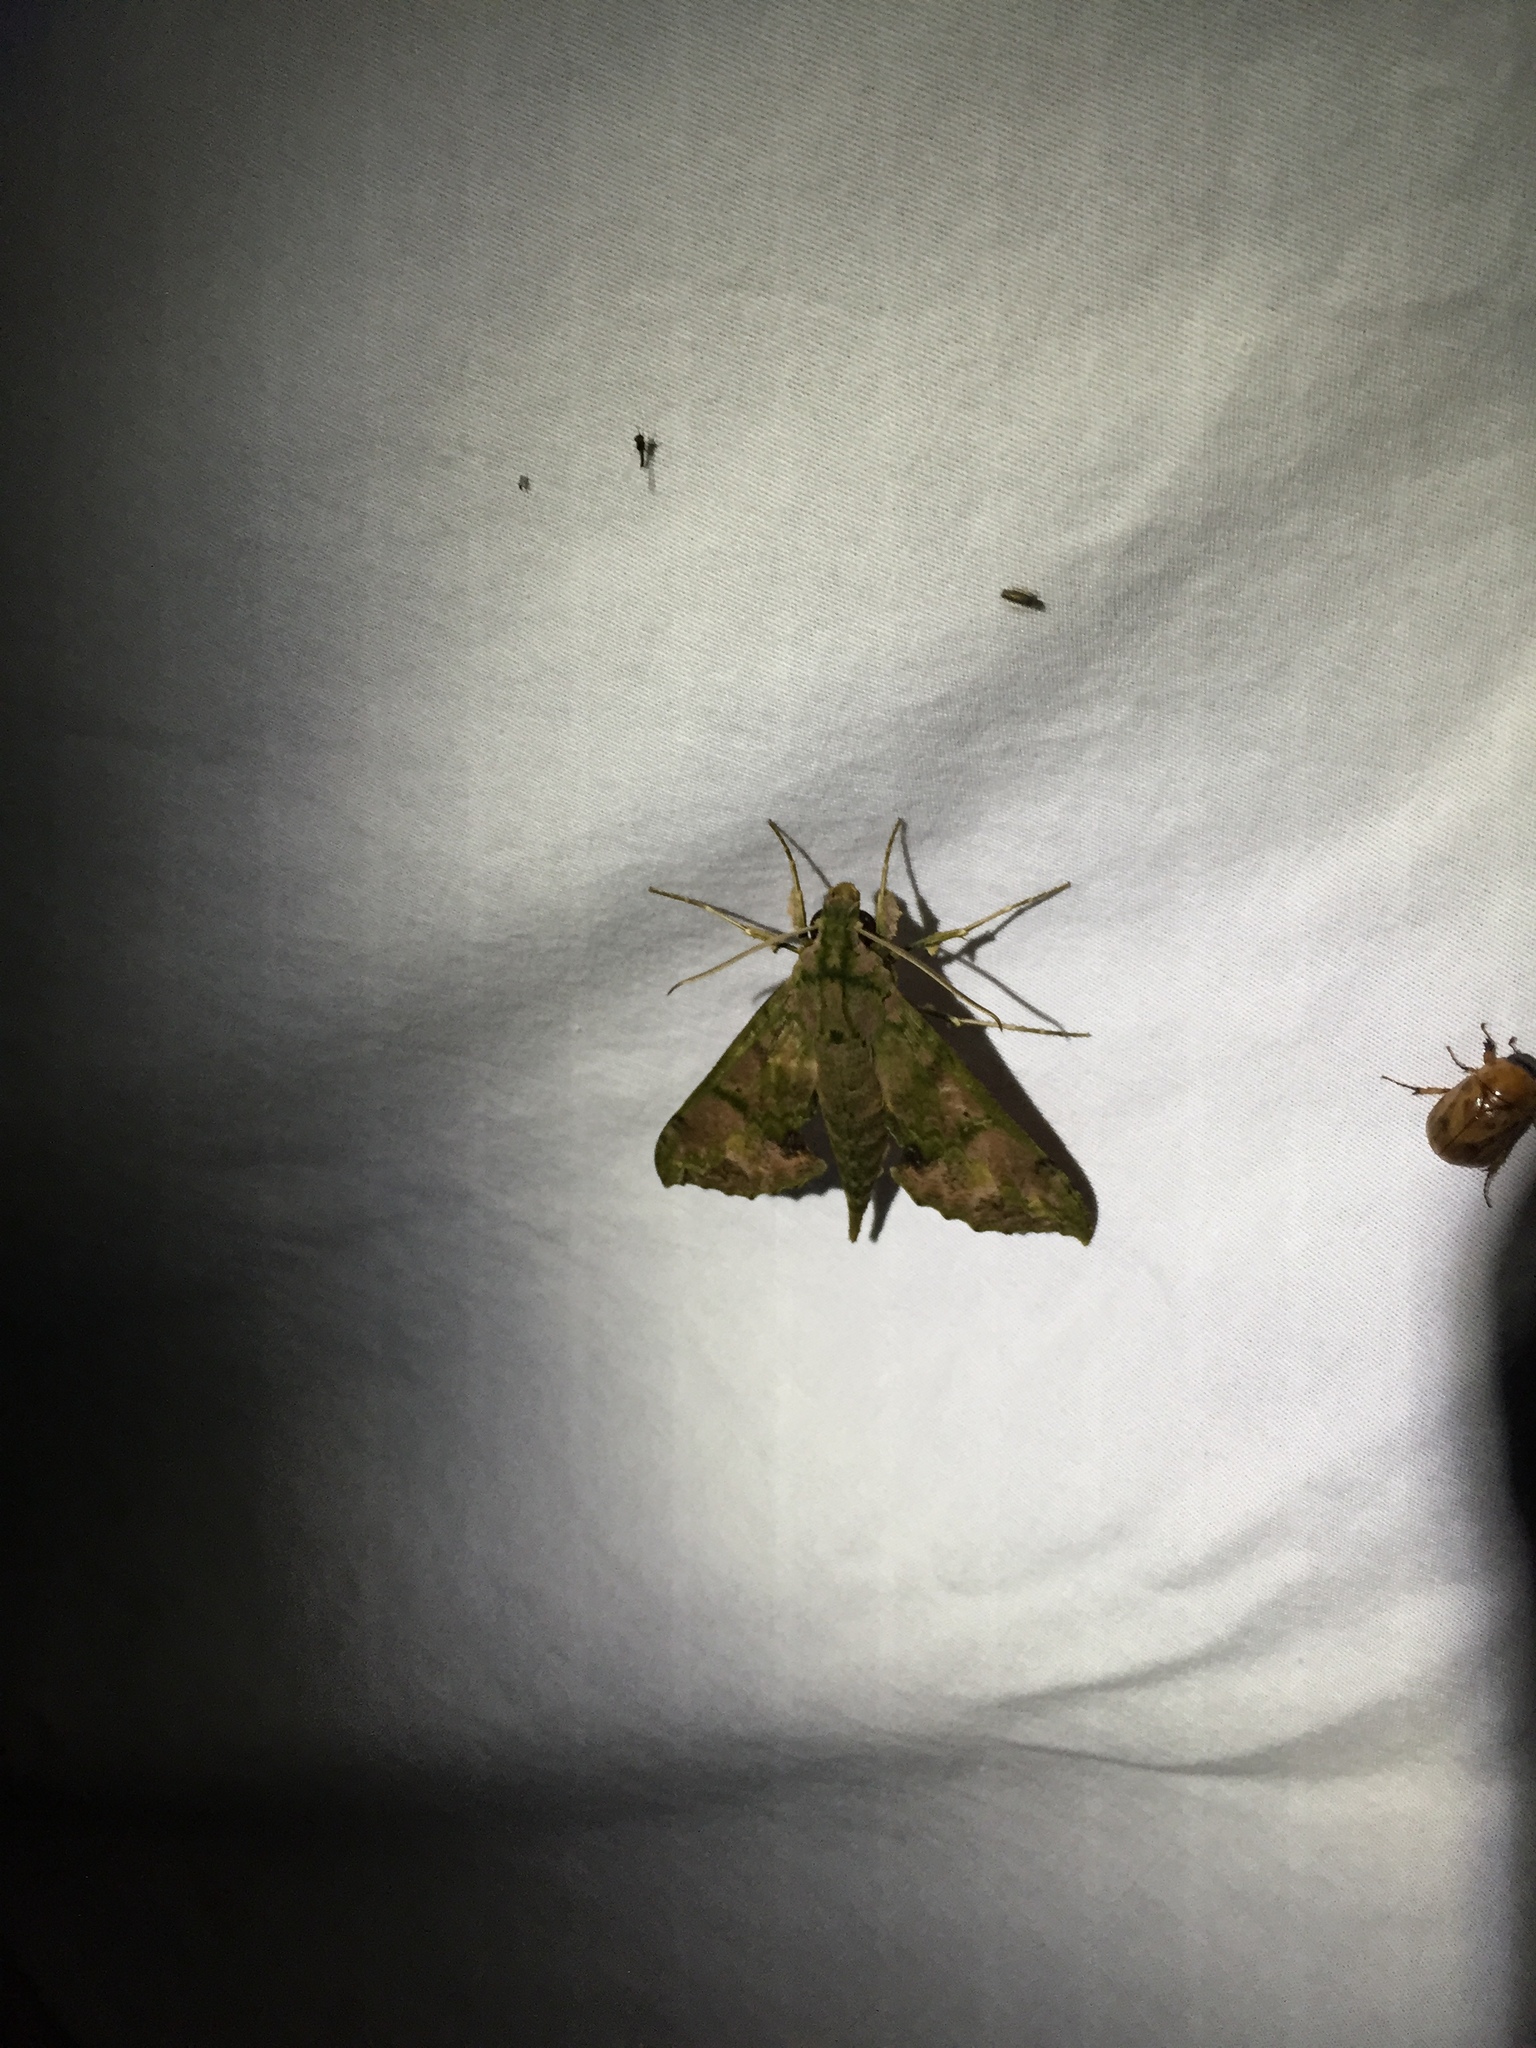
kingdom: Animalia
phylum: Arthropoda
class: Insecta
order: Lepidoptera
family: Sphingidae
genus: Xylophanes
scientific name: Xylophanes zurcheri
